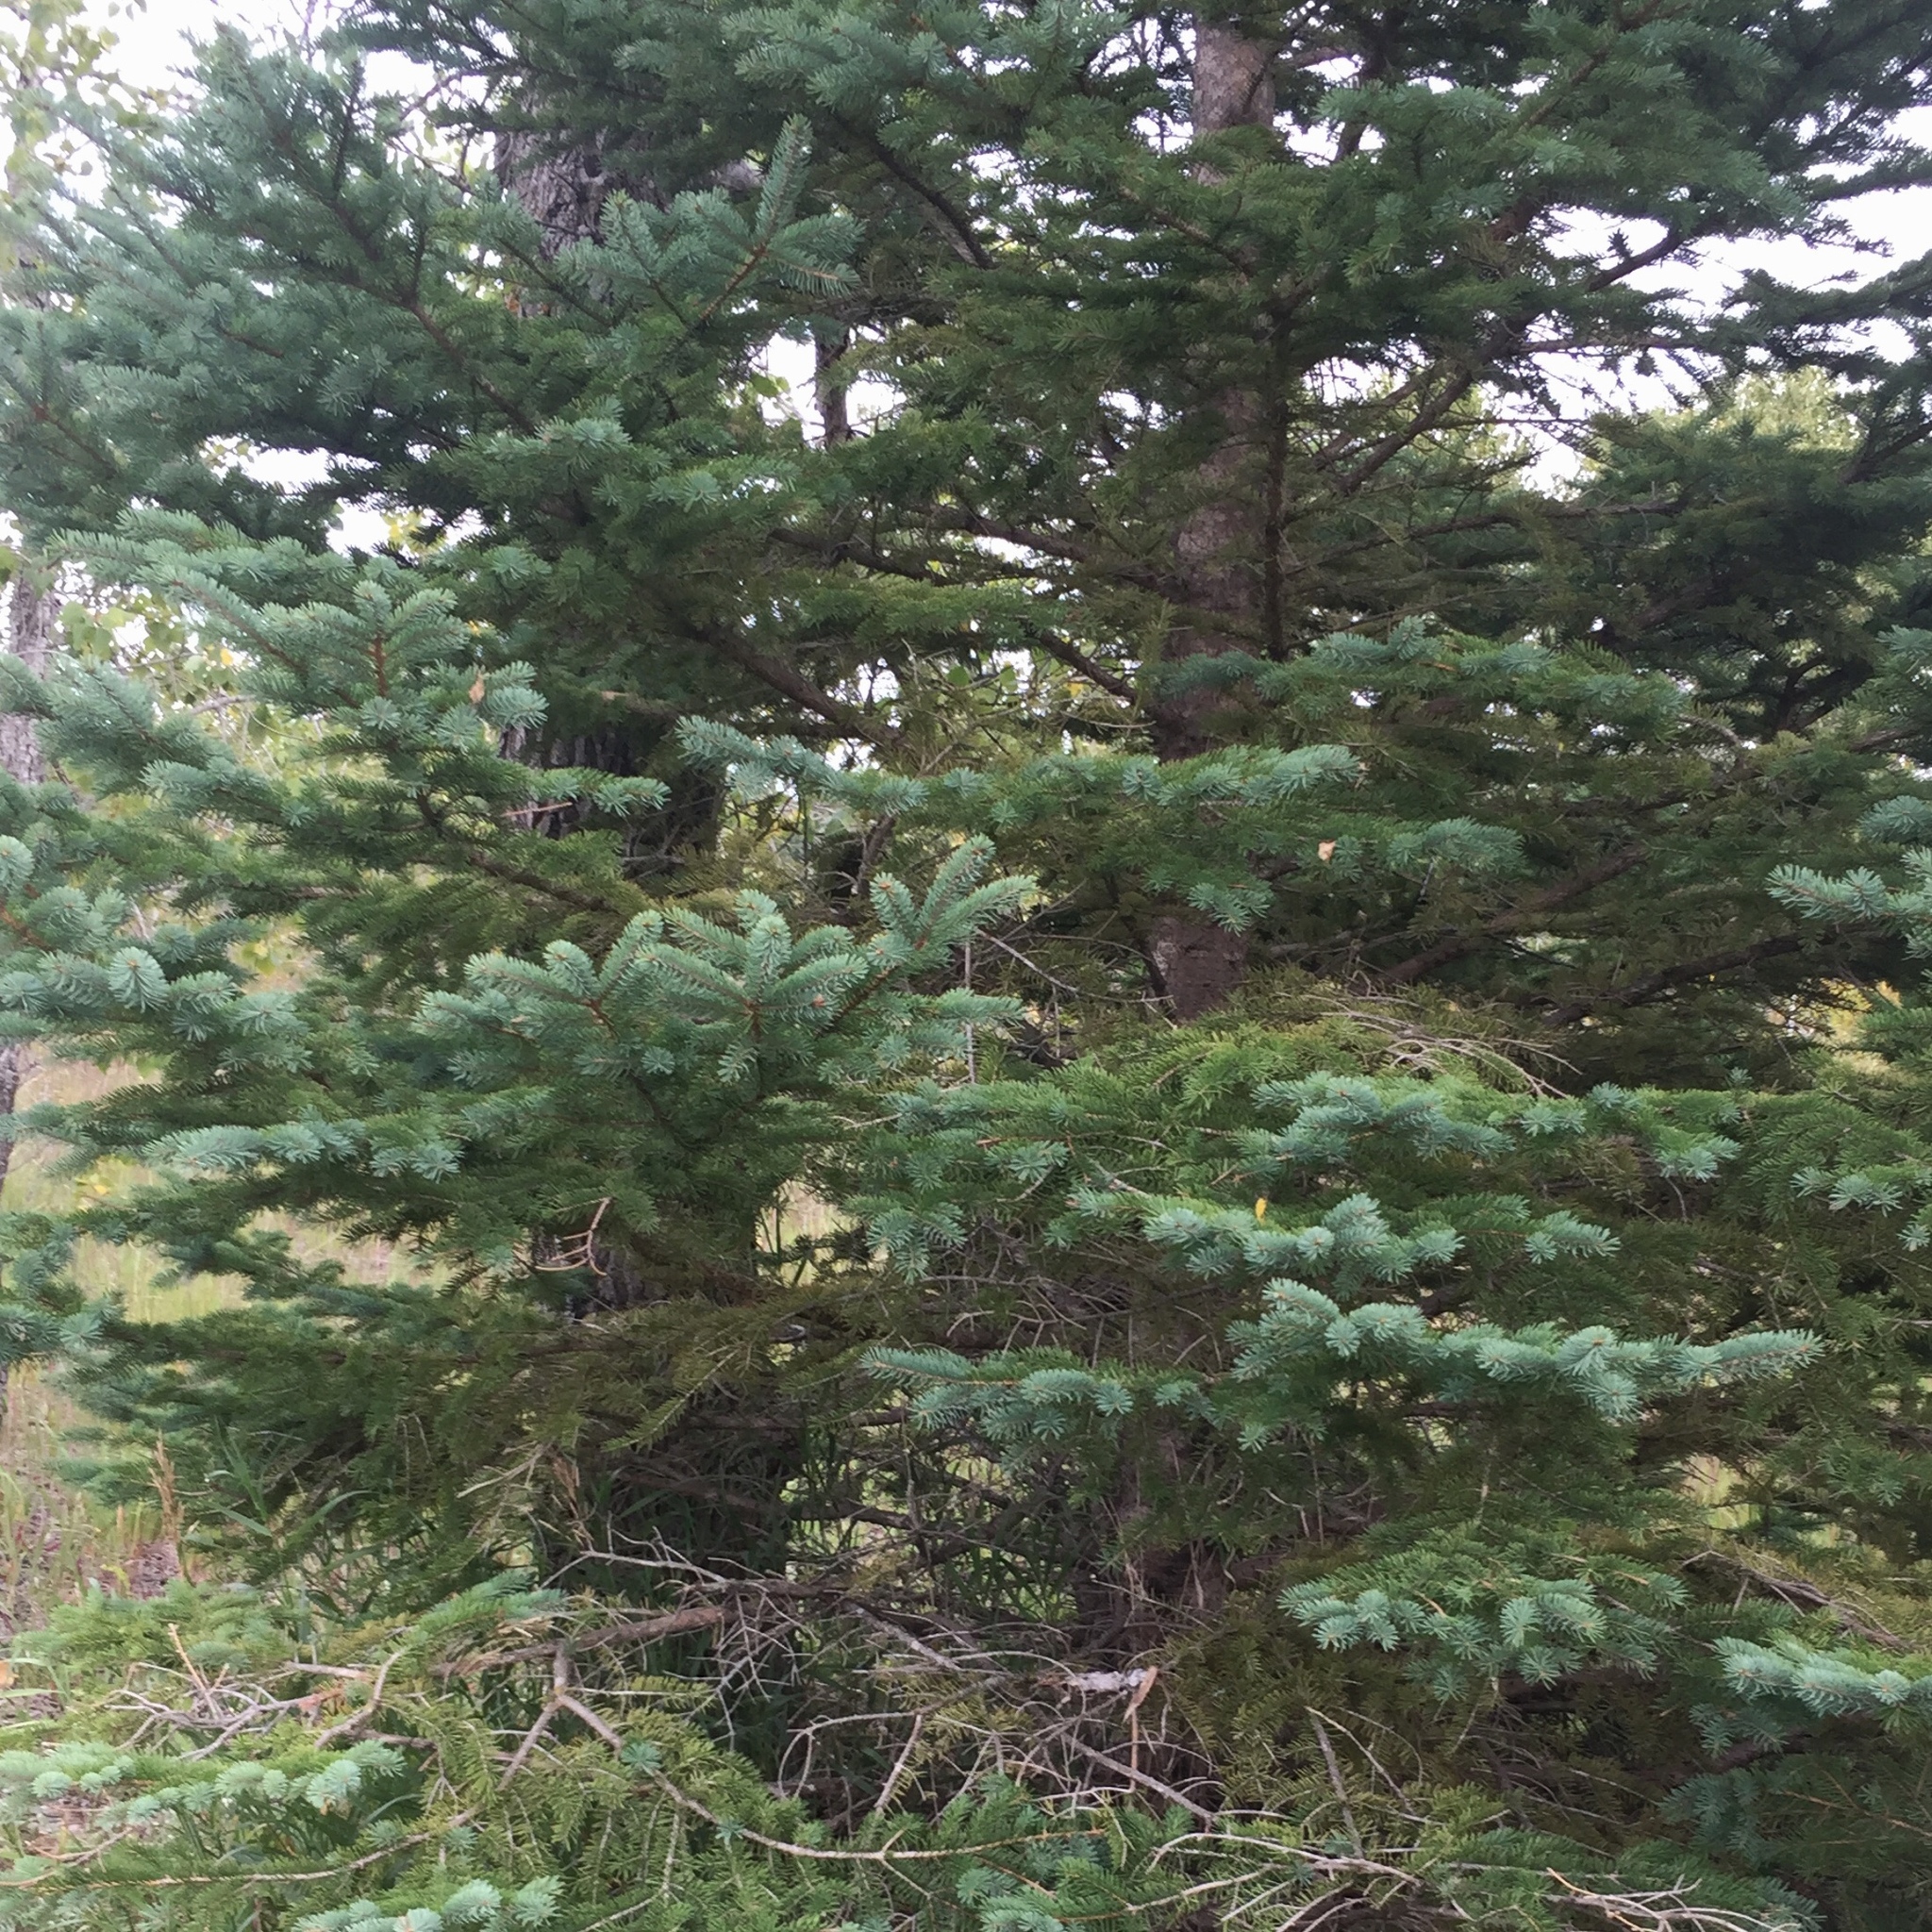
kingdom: Plantae
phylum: Tracheophyta
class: Pinopsida
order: Pinales
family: Pinaceae
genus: Picea
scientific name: Picea glauca
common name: White spruce
